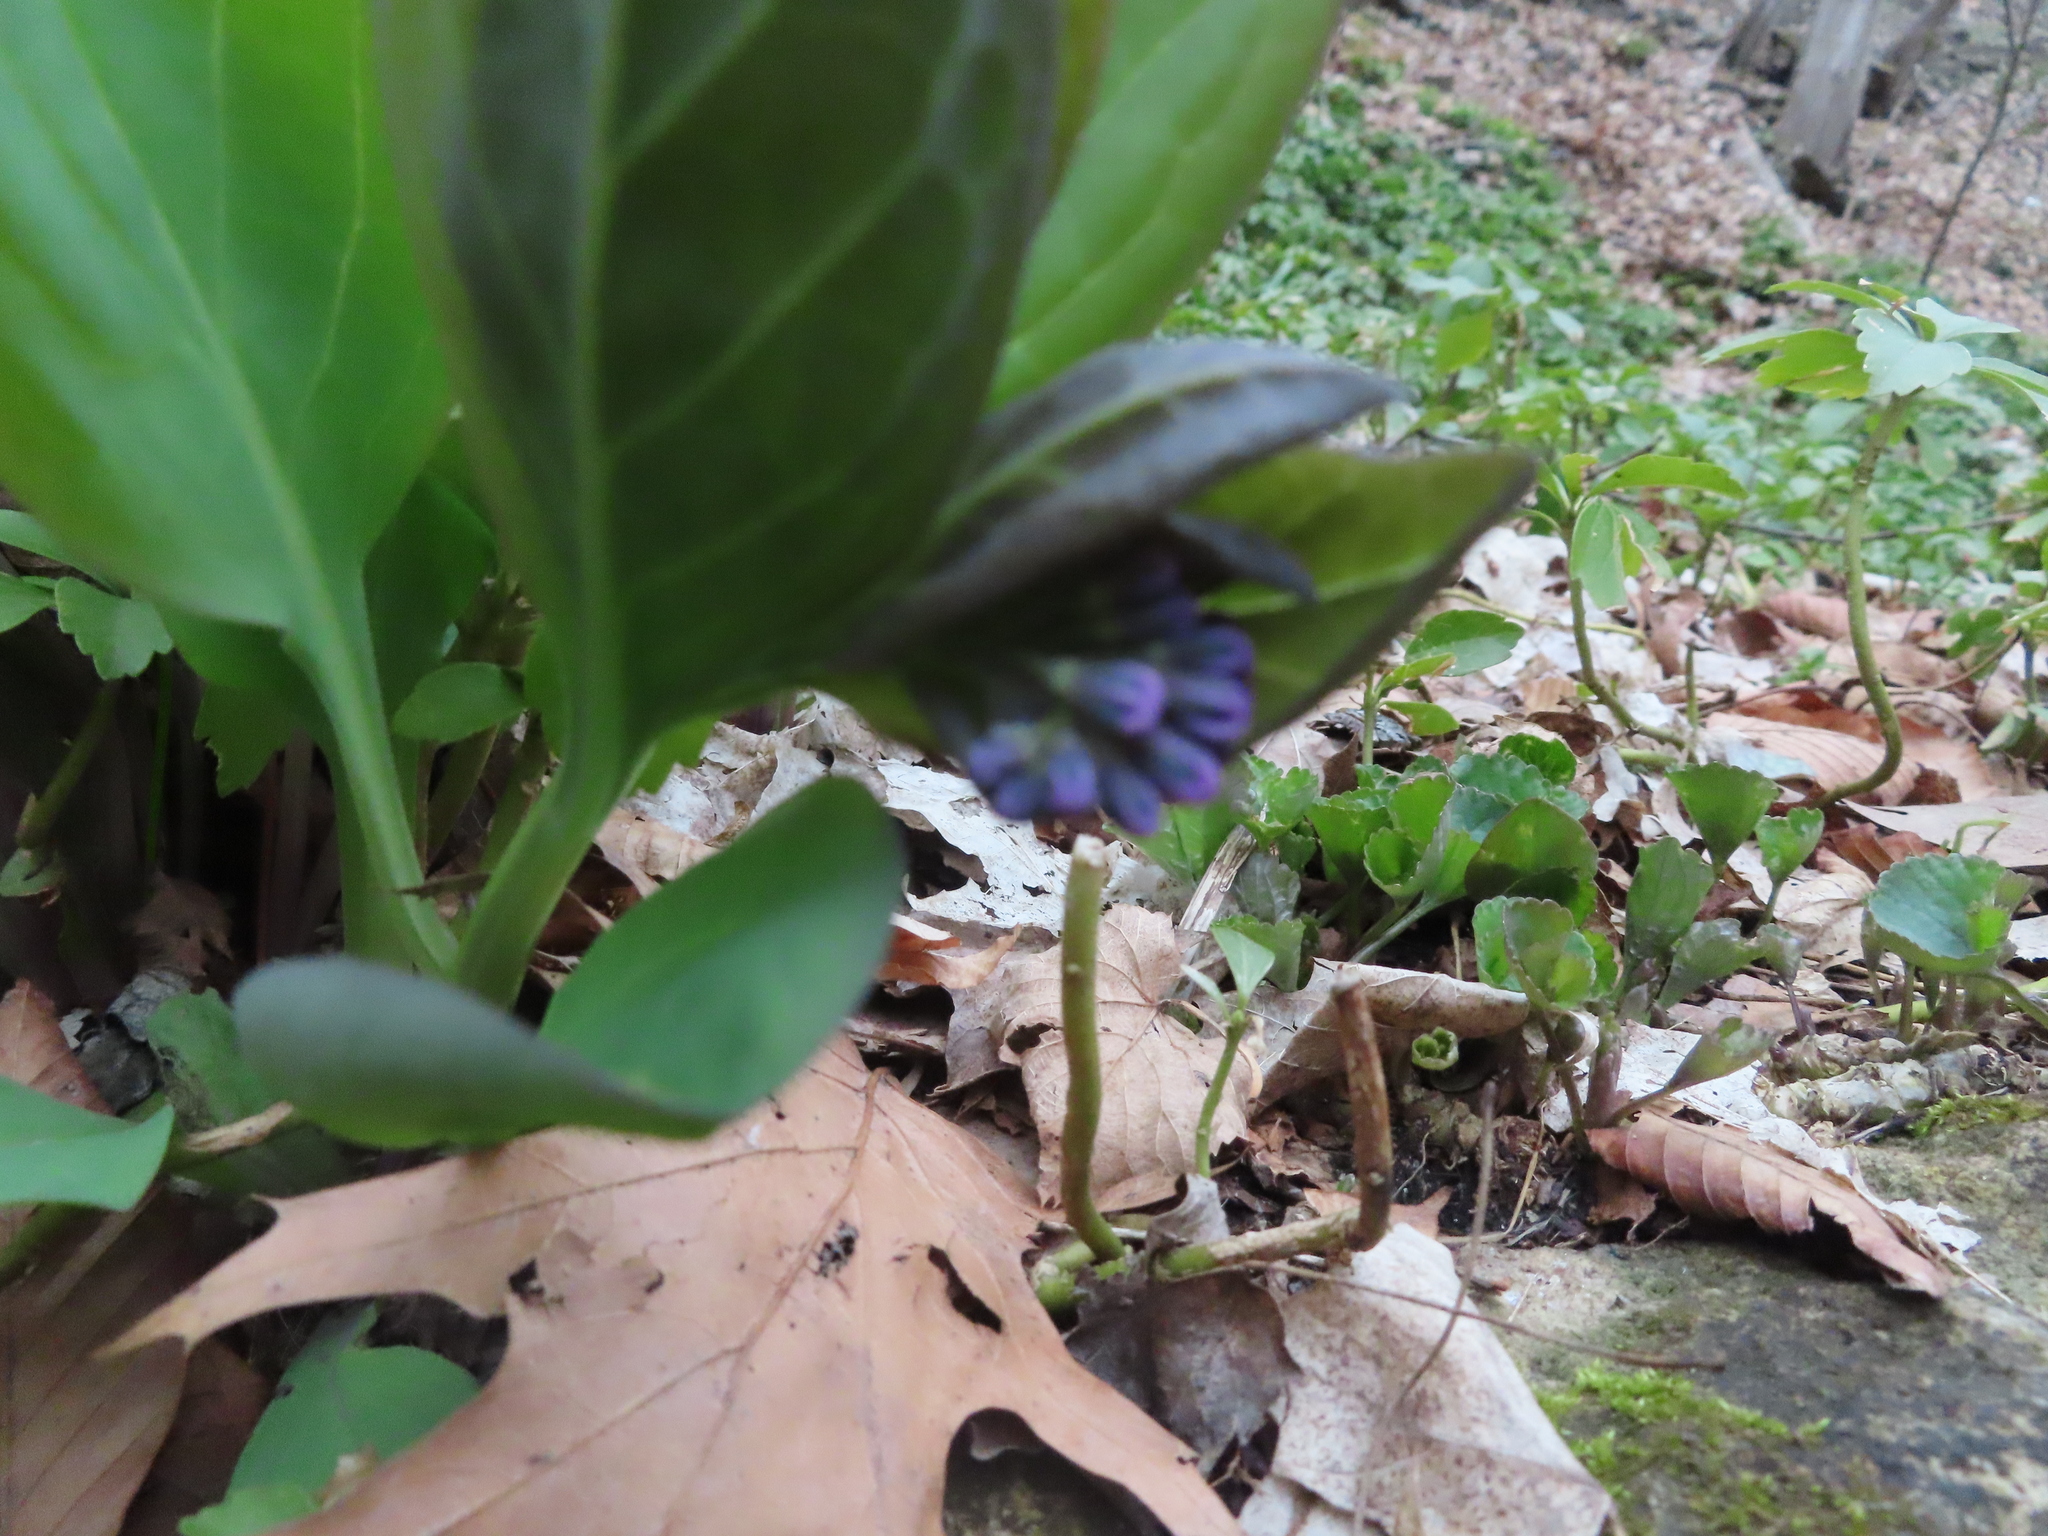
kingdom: Plantae
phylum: Tracheophyta
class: Magnoliopsida
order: Boraginales
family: Boraginaceae
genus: Mertensia
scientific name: Mertensia virginica
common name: Virginia bluebells
